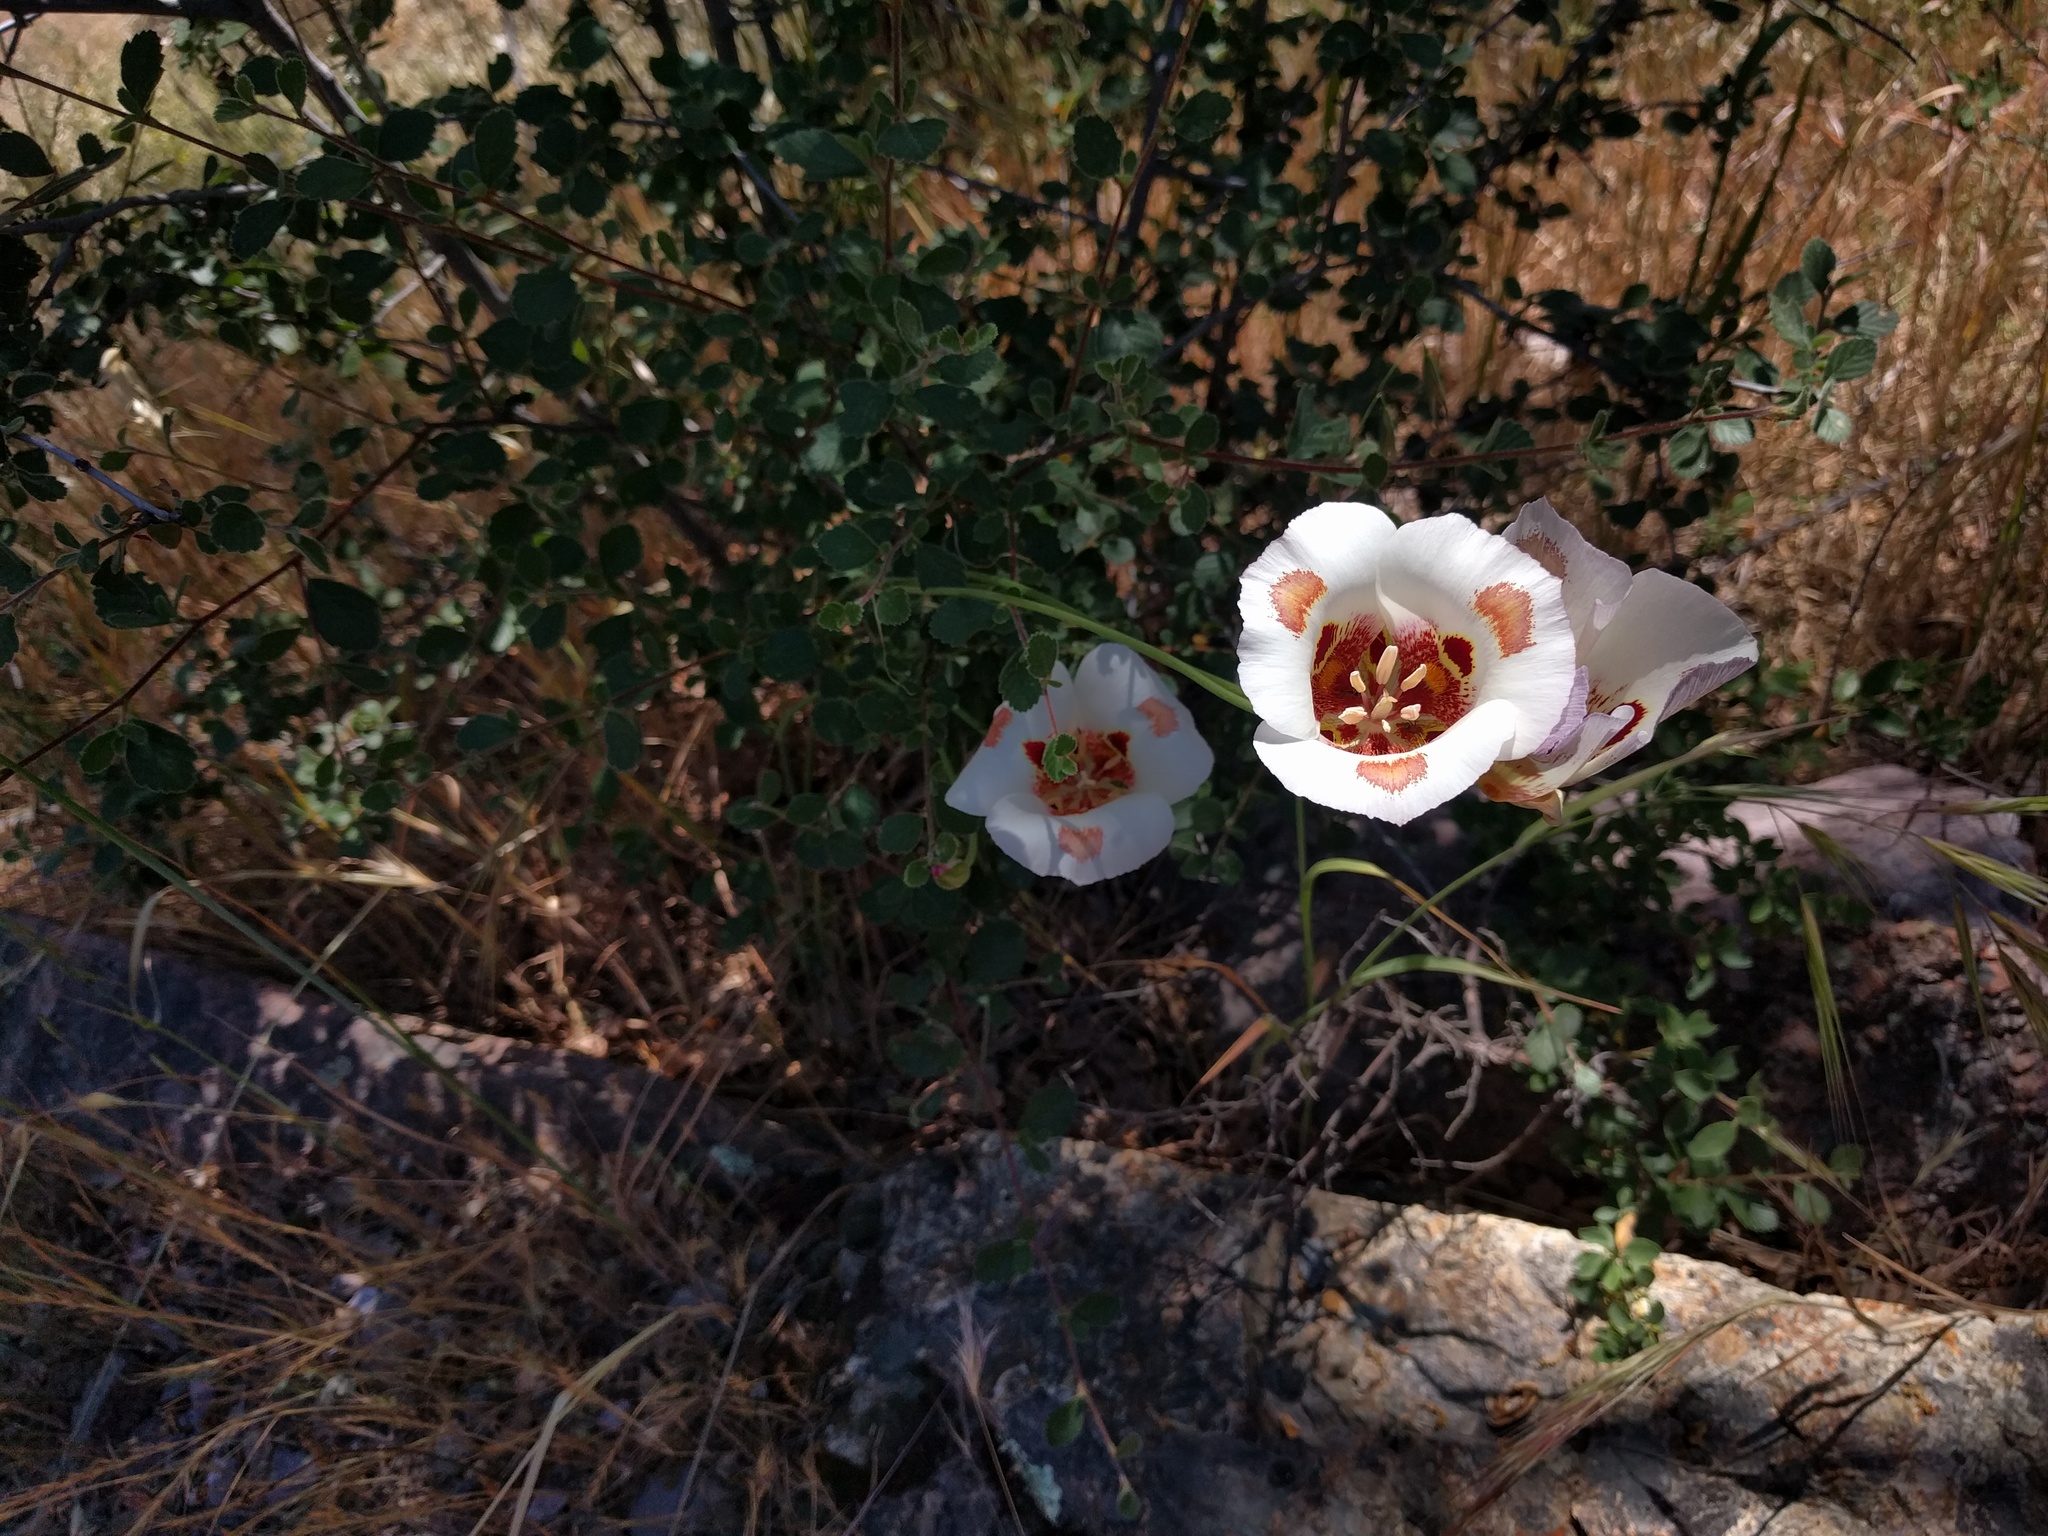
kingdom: Plantae
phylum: Tracheophyta
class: Liliopsida
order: Liliales
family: Liliaceae
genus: Calochortus
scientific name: Calochortus venustus
